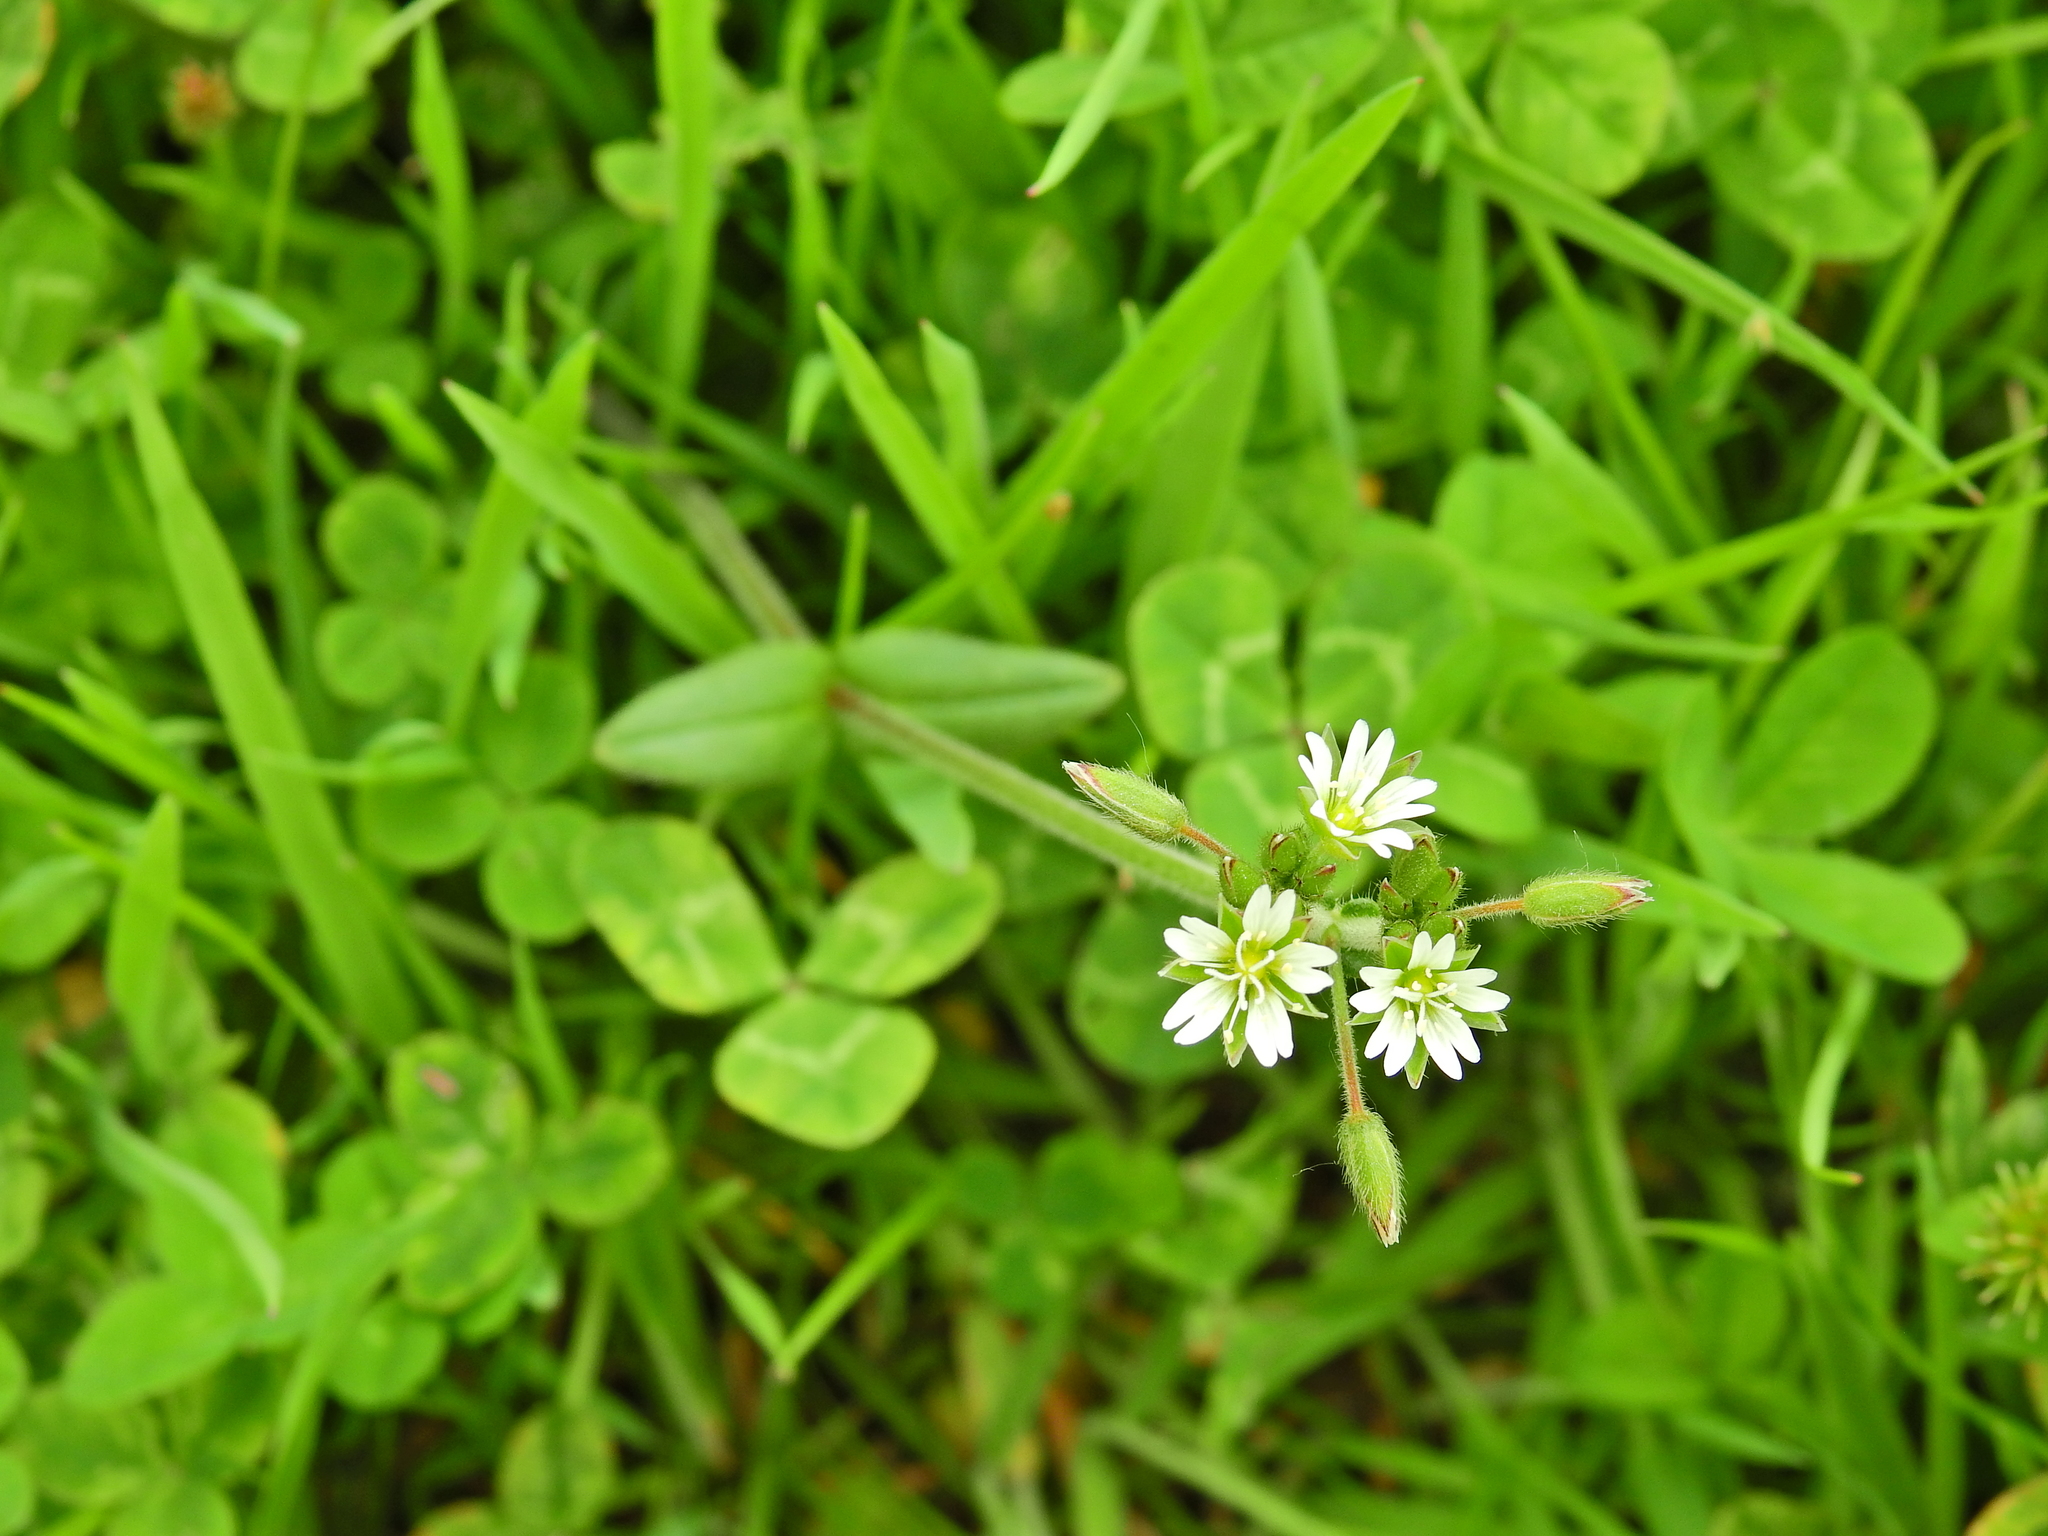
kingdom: Plantae
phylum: Tracheophyta
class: Magnoliopsida
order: Caryophyllales
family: Caryophyllaceae
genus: Cerastium
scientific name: Cerastium fontanum
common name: Common mouse-ear
